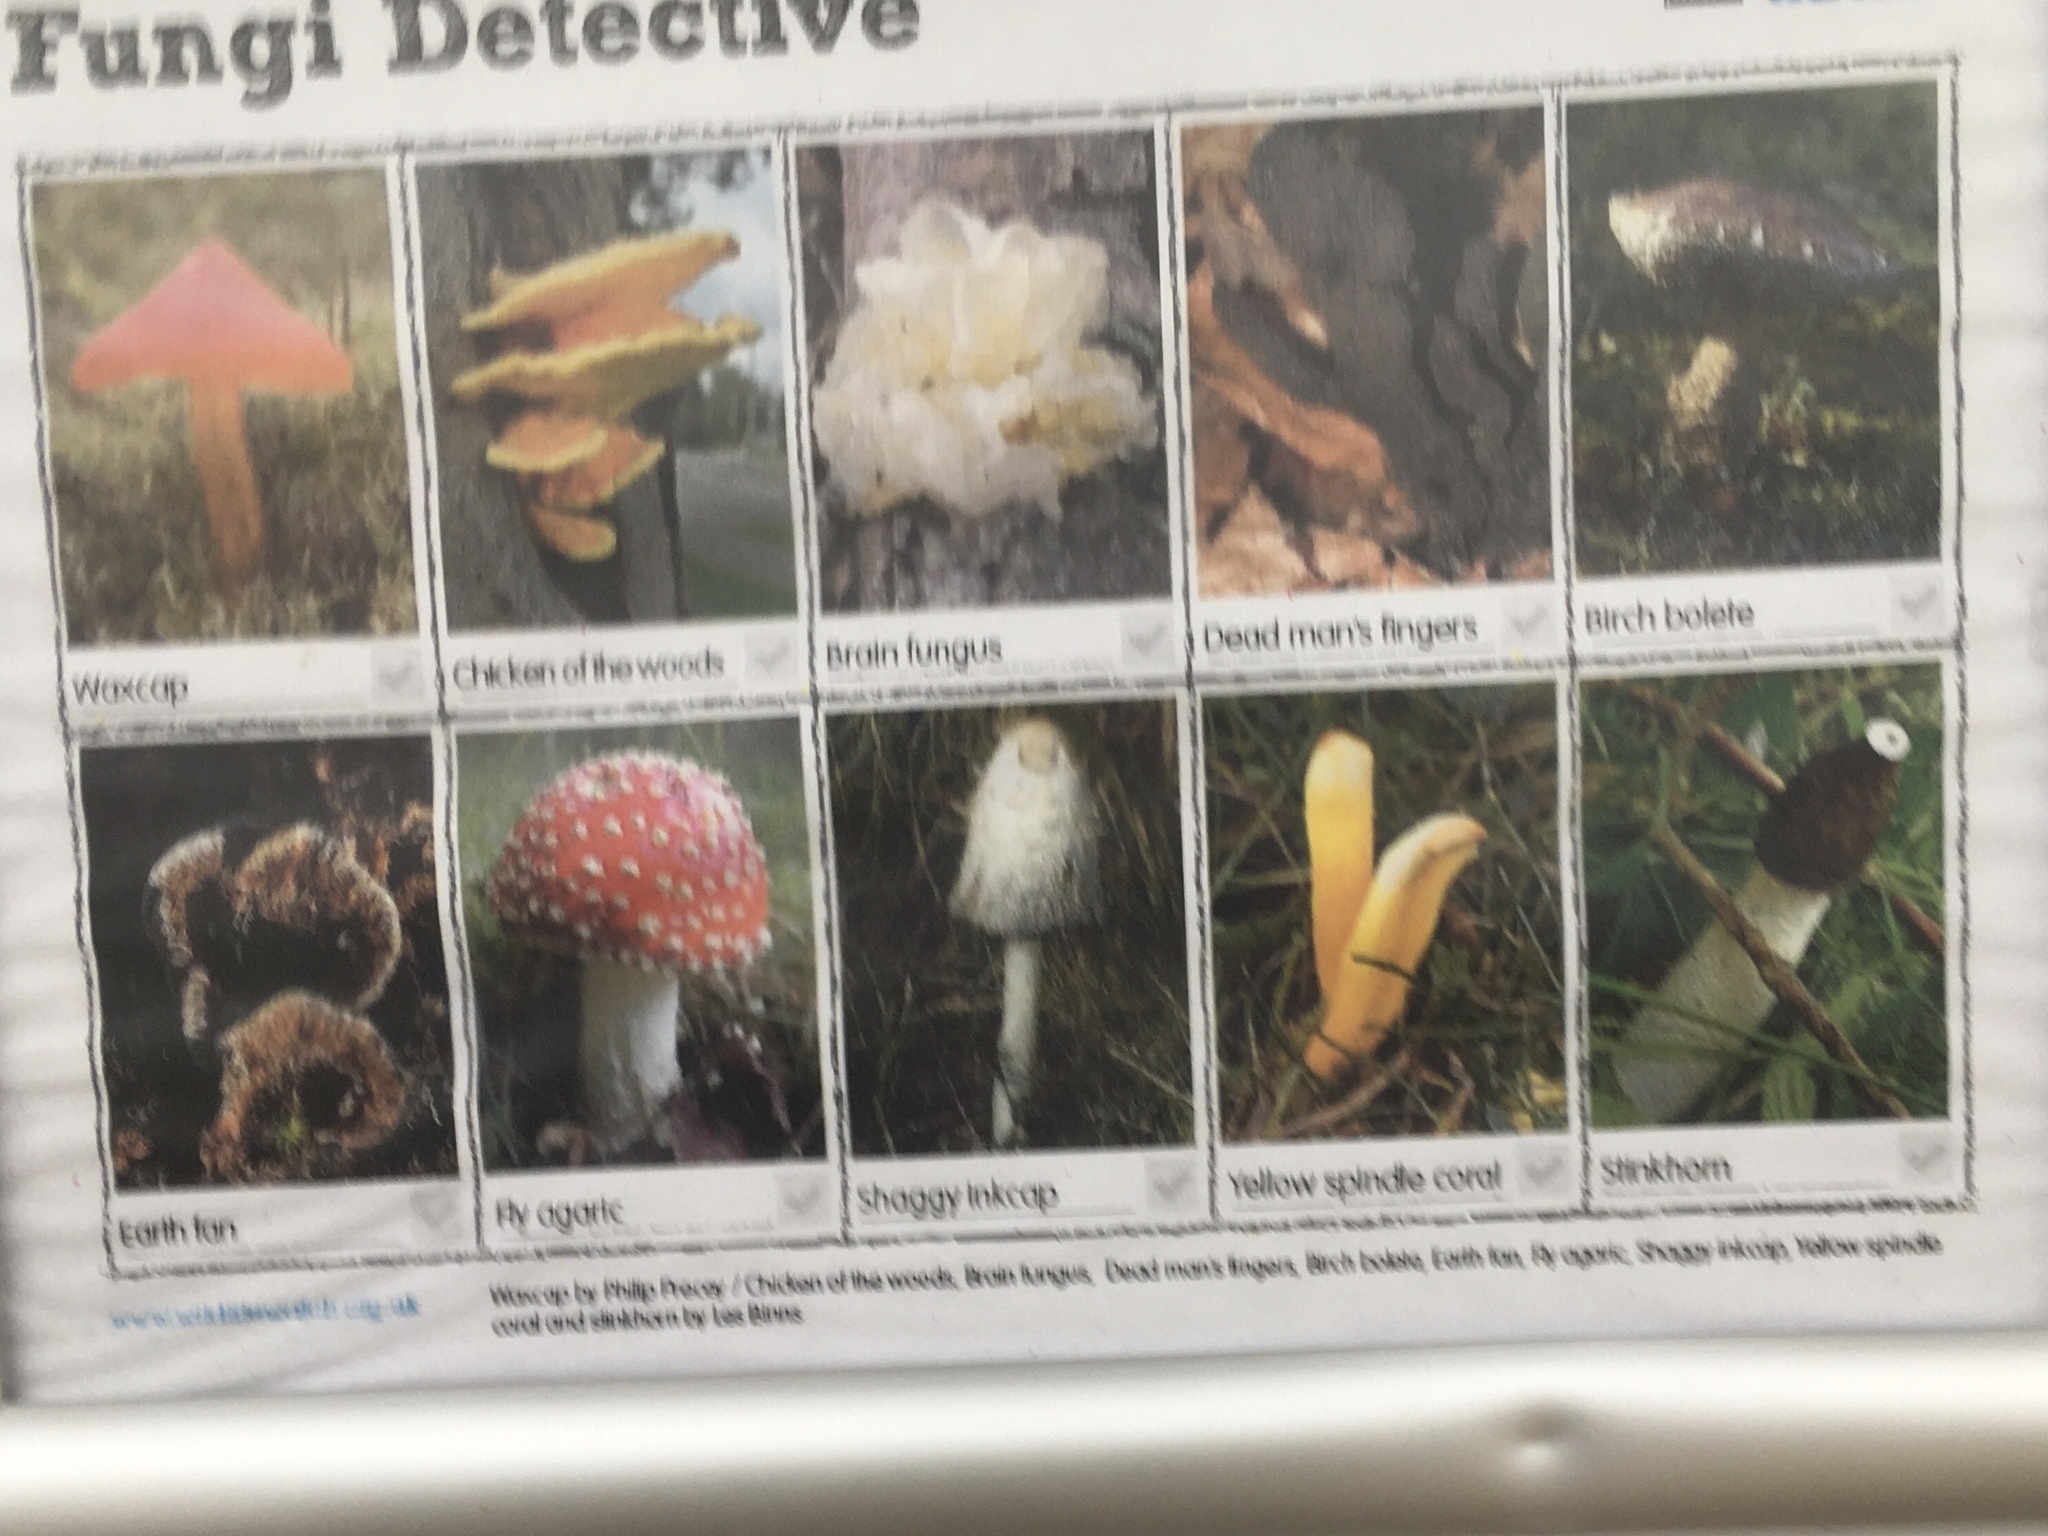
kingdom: Fungi
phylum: Basidiomycota
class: Agaricomycetes
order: Polyporales
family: Polyporaceae
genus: Trametes
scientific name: Trametes gibbosa
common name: Lumpy bracket
